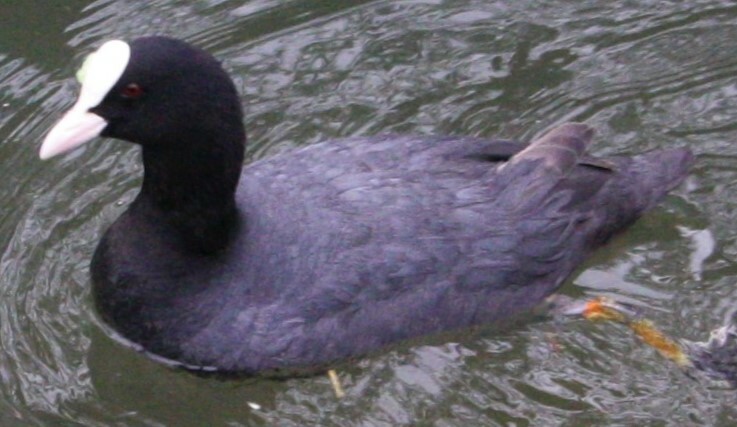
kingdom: Animalia
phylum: Chordata
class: Aves
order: Gruiformes
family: Rallidae
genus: Fulica
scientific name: Fulica atra
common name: Eurasian coot
